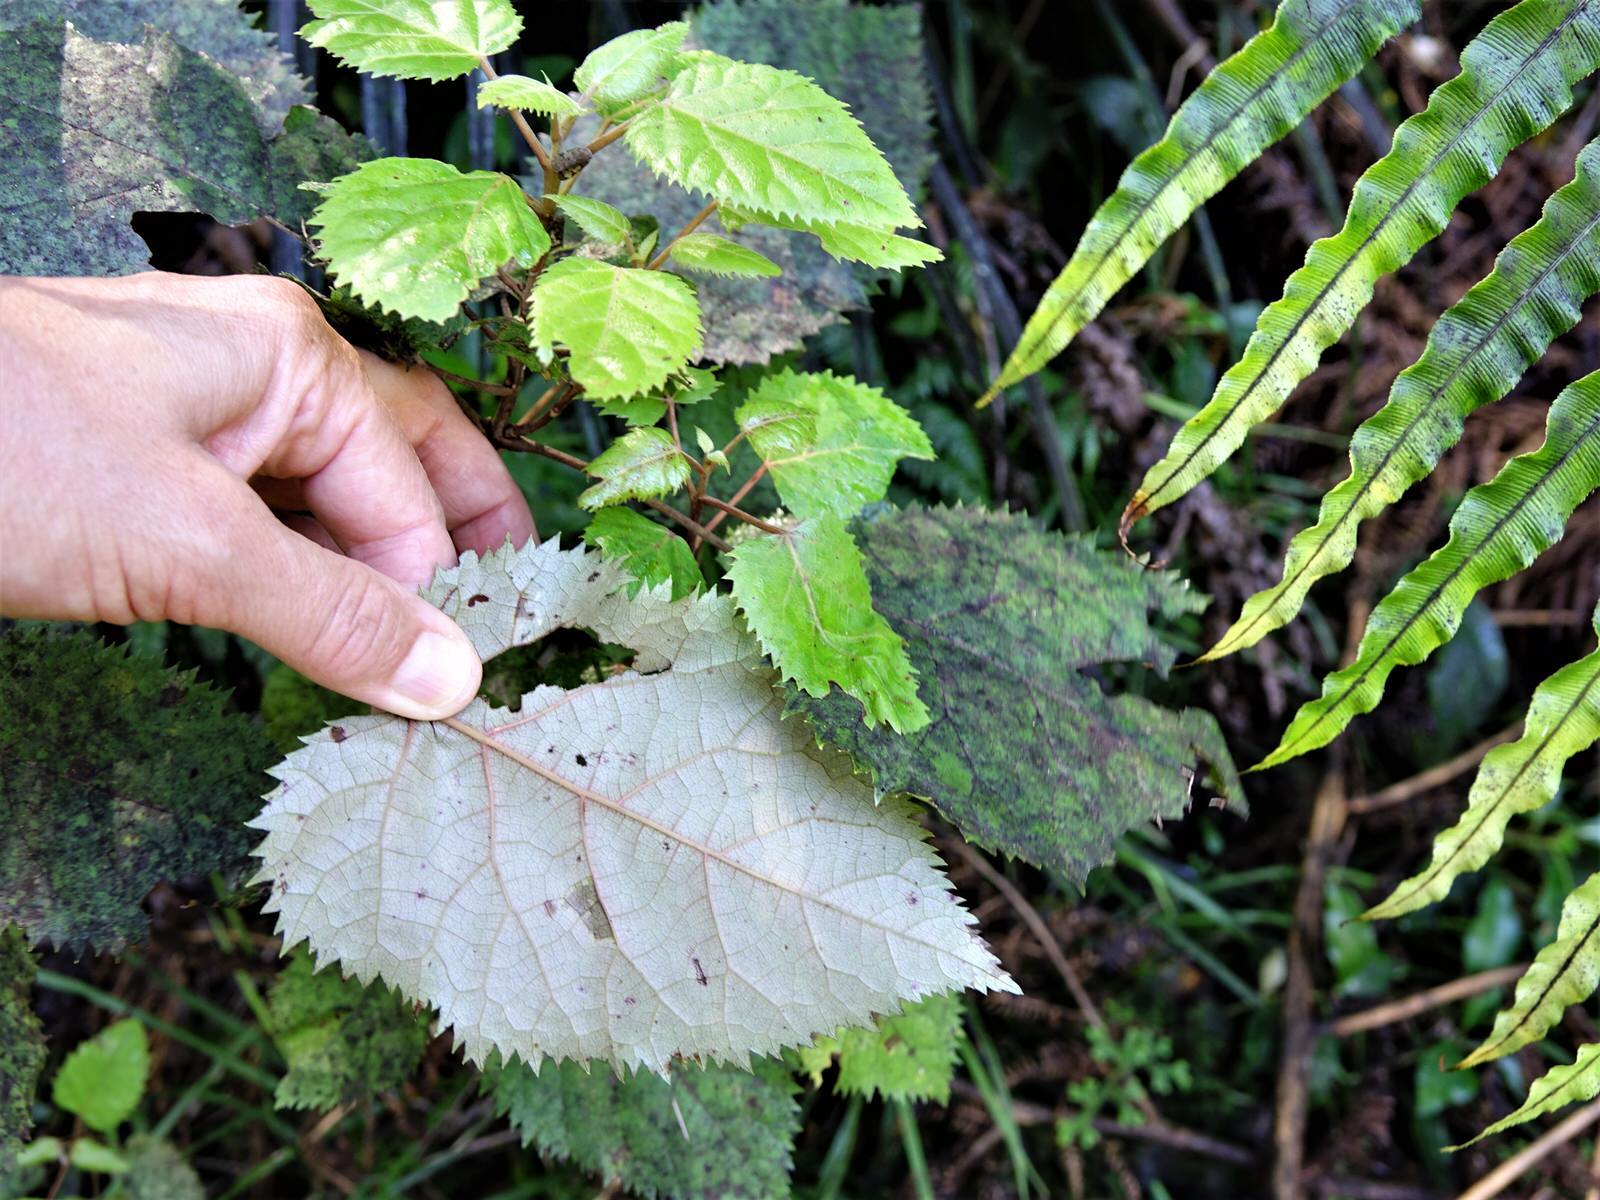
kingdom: Plantae
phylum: Tracheophyta
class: Magnoliopsida
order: Oxalidales
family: Elaeocarpaceae
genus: Aristotelia
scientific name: Aristotelia serrata
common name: New zealand wineberry
